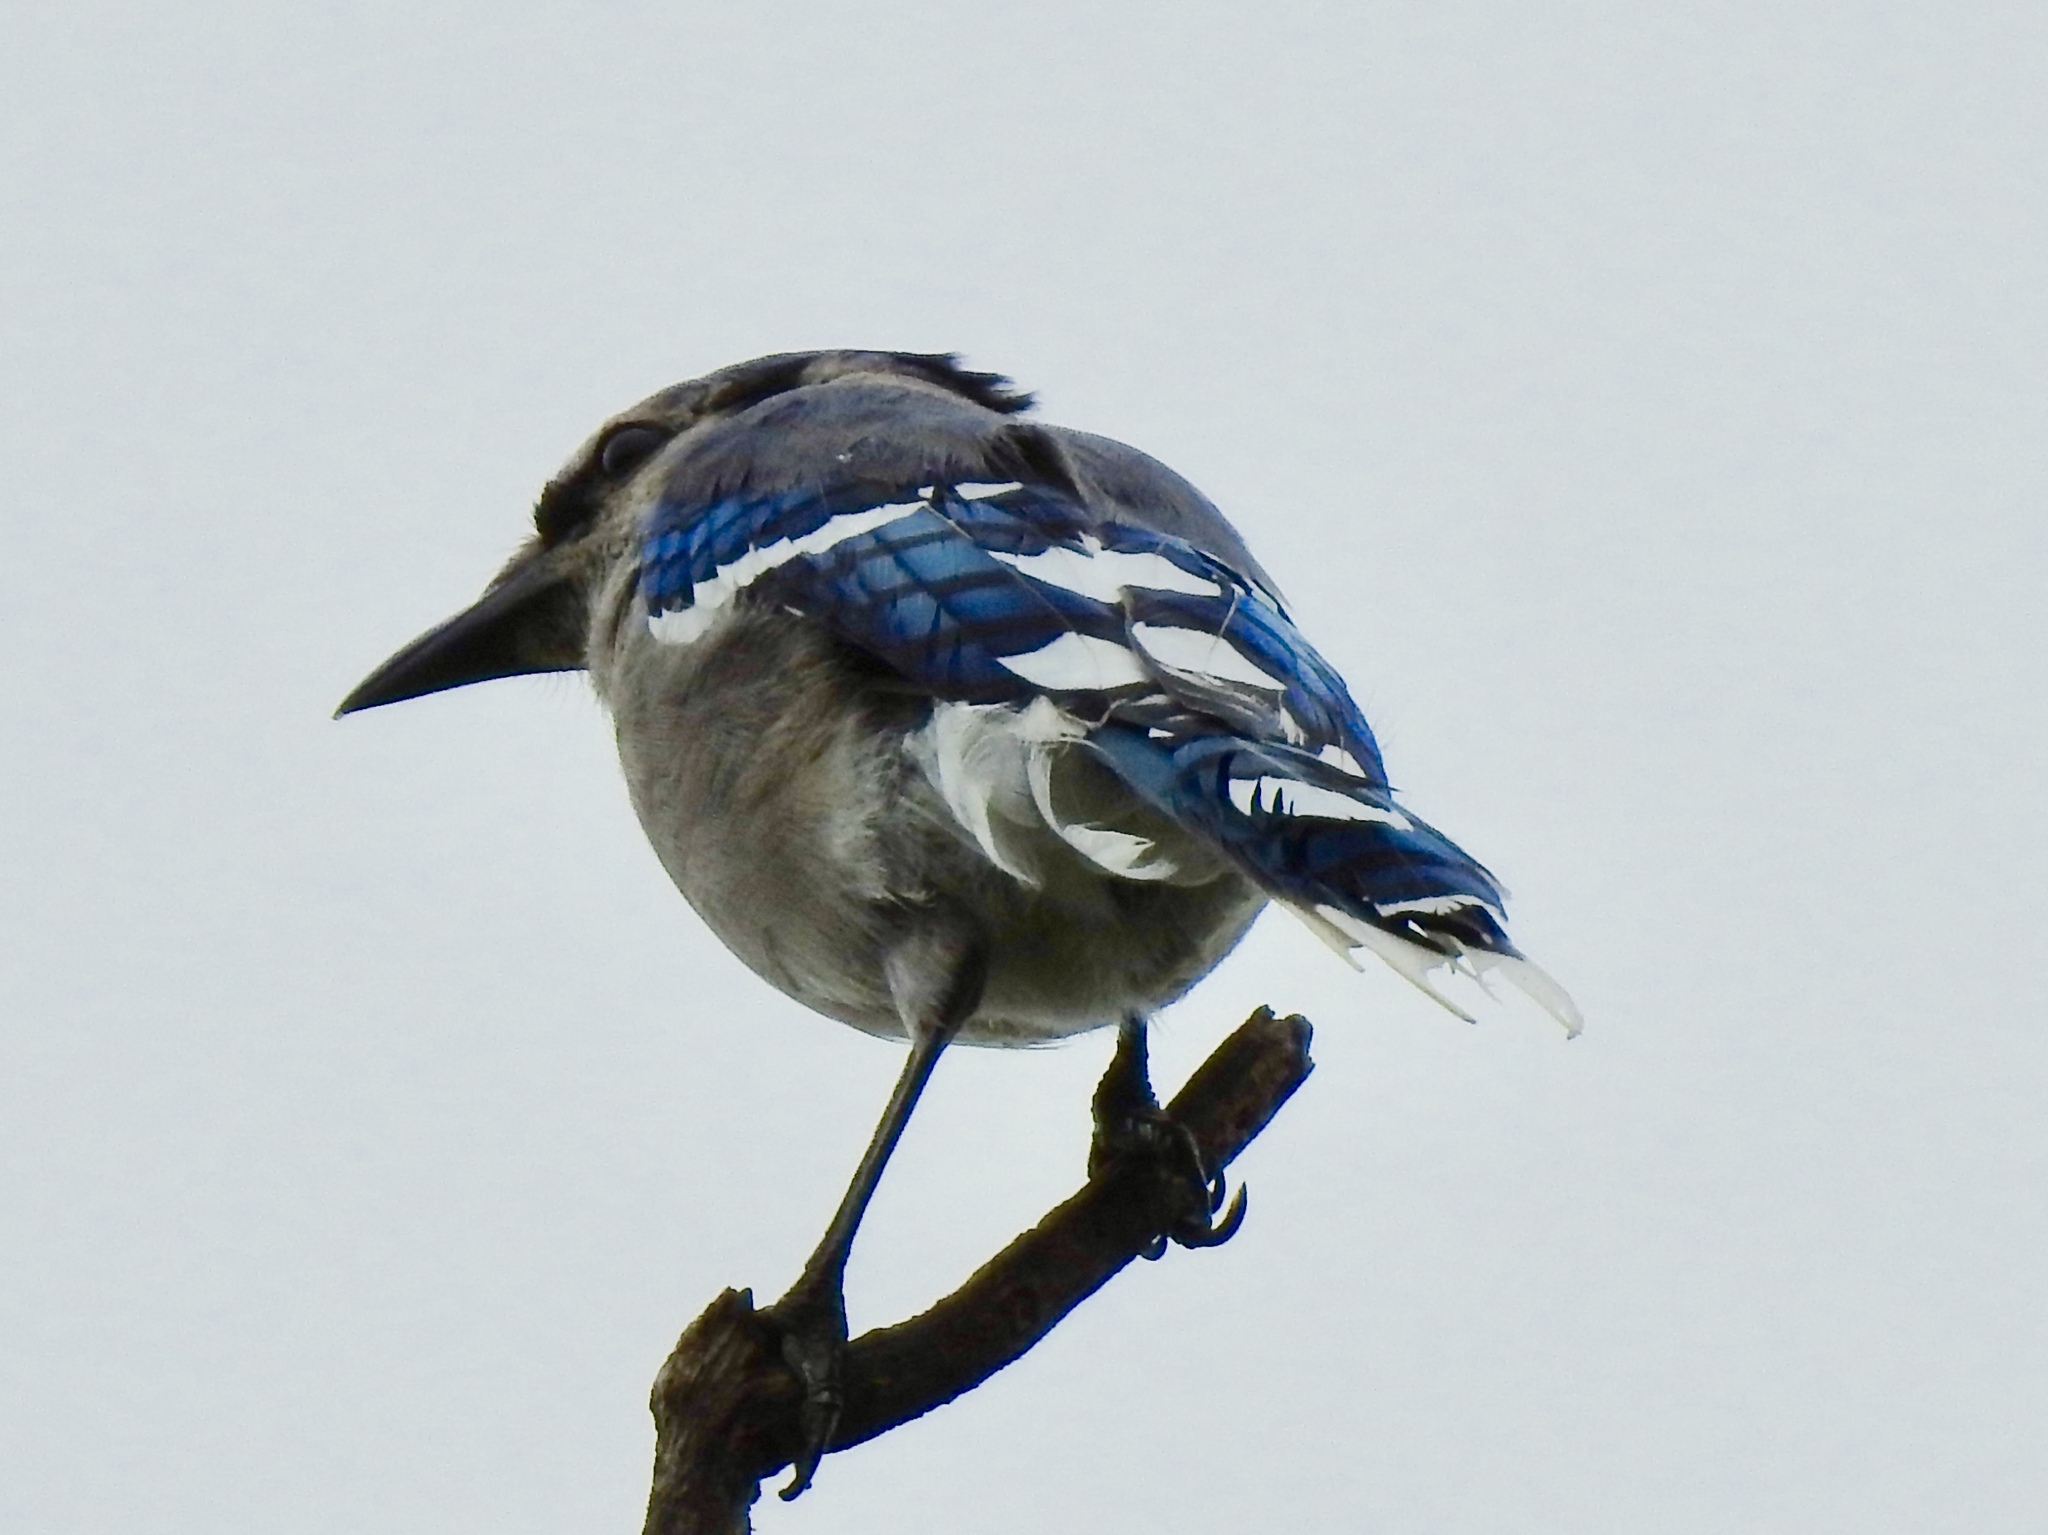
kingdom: Animalia
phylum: Chordata
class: Aves
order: Passeriformes
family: Corvidae
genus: Cyanocitta
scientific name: Cyanocitta cristata
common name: Blue jay
